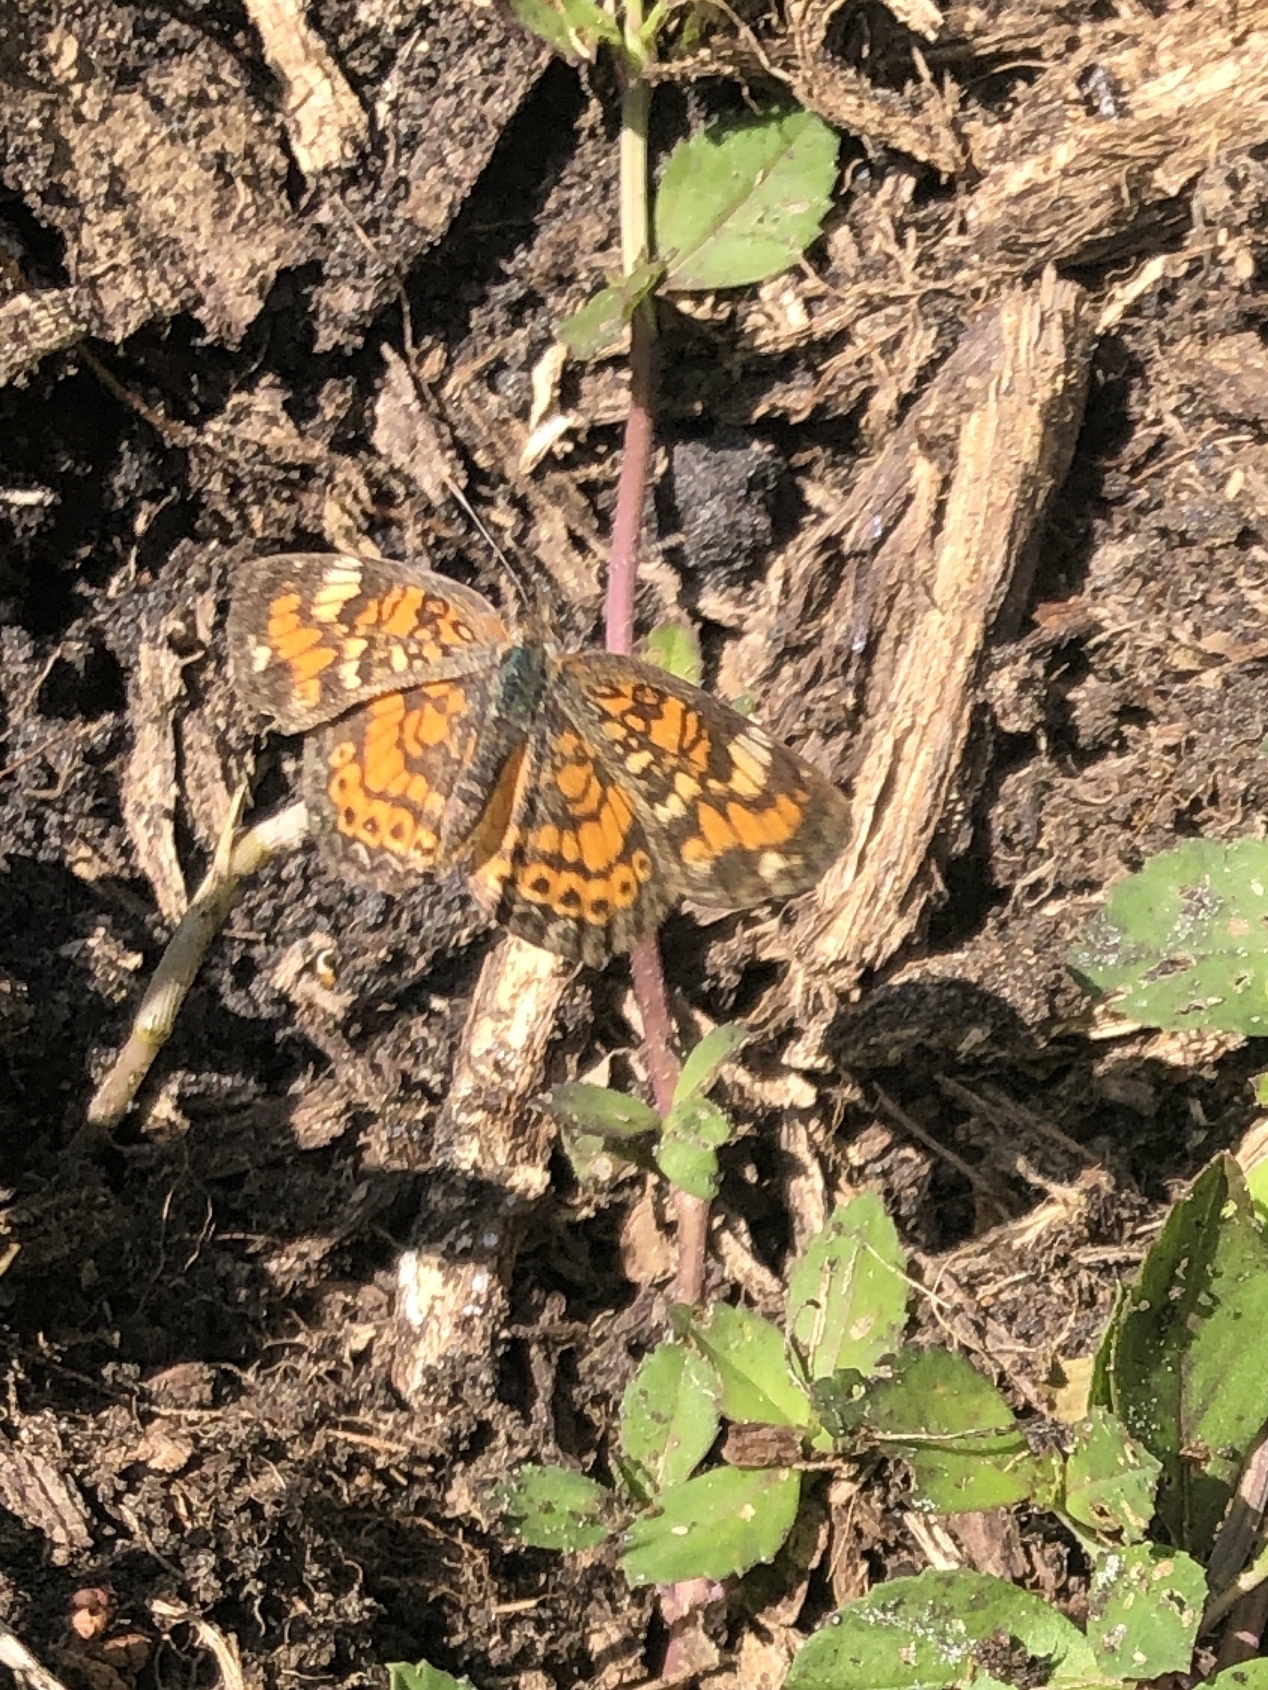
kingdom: Animalia
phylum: Arthropoda
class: Insecta
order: Lepidoptera
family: Nymphalidae
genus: Phyciodes
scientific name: Phyciodes phaon
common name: Phaon crescent
